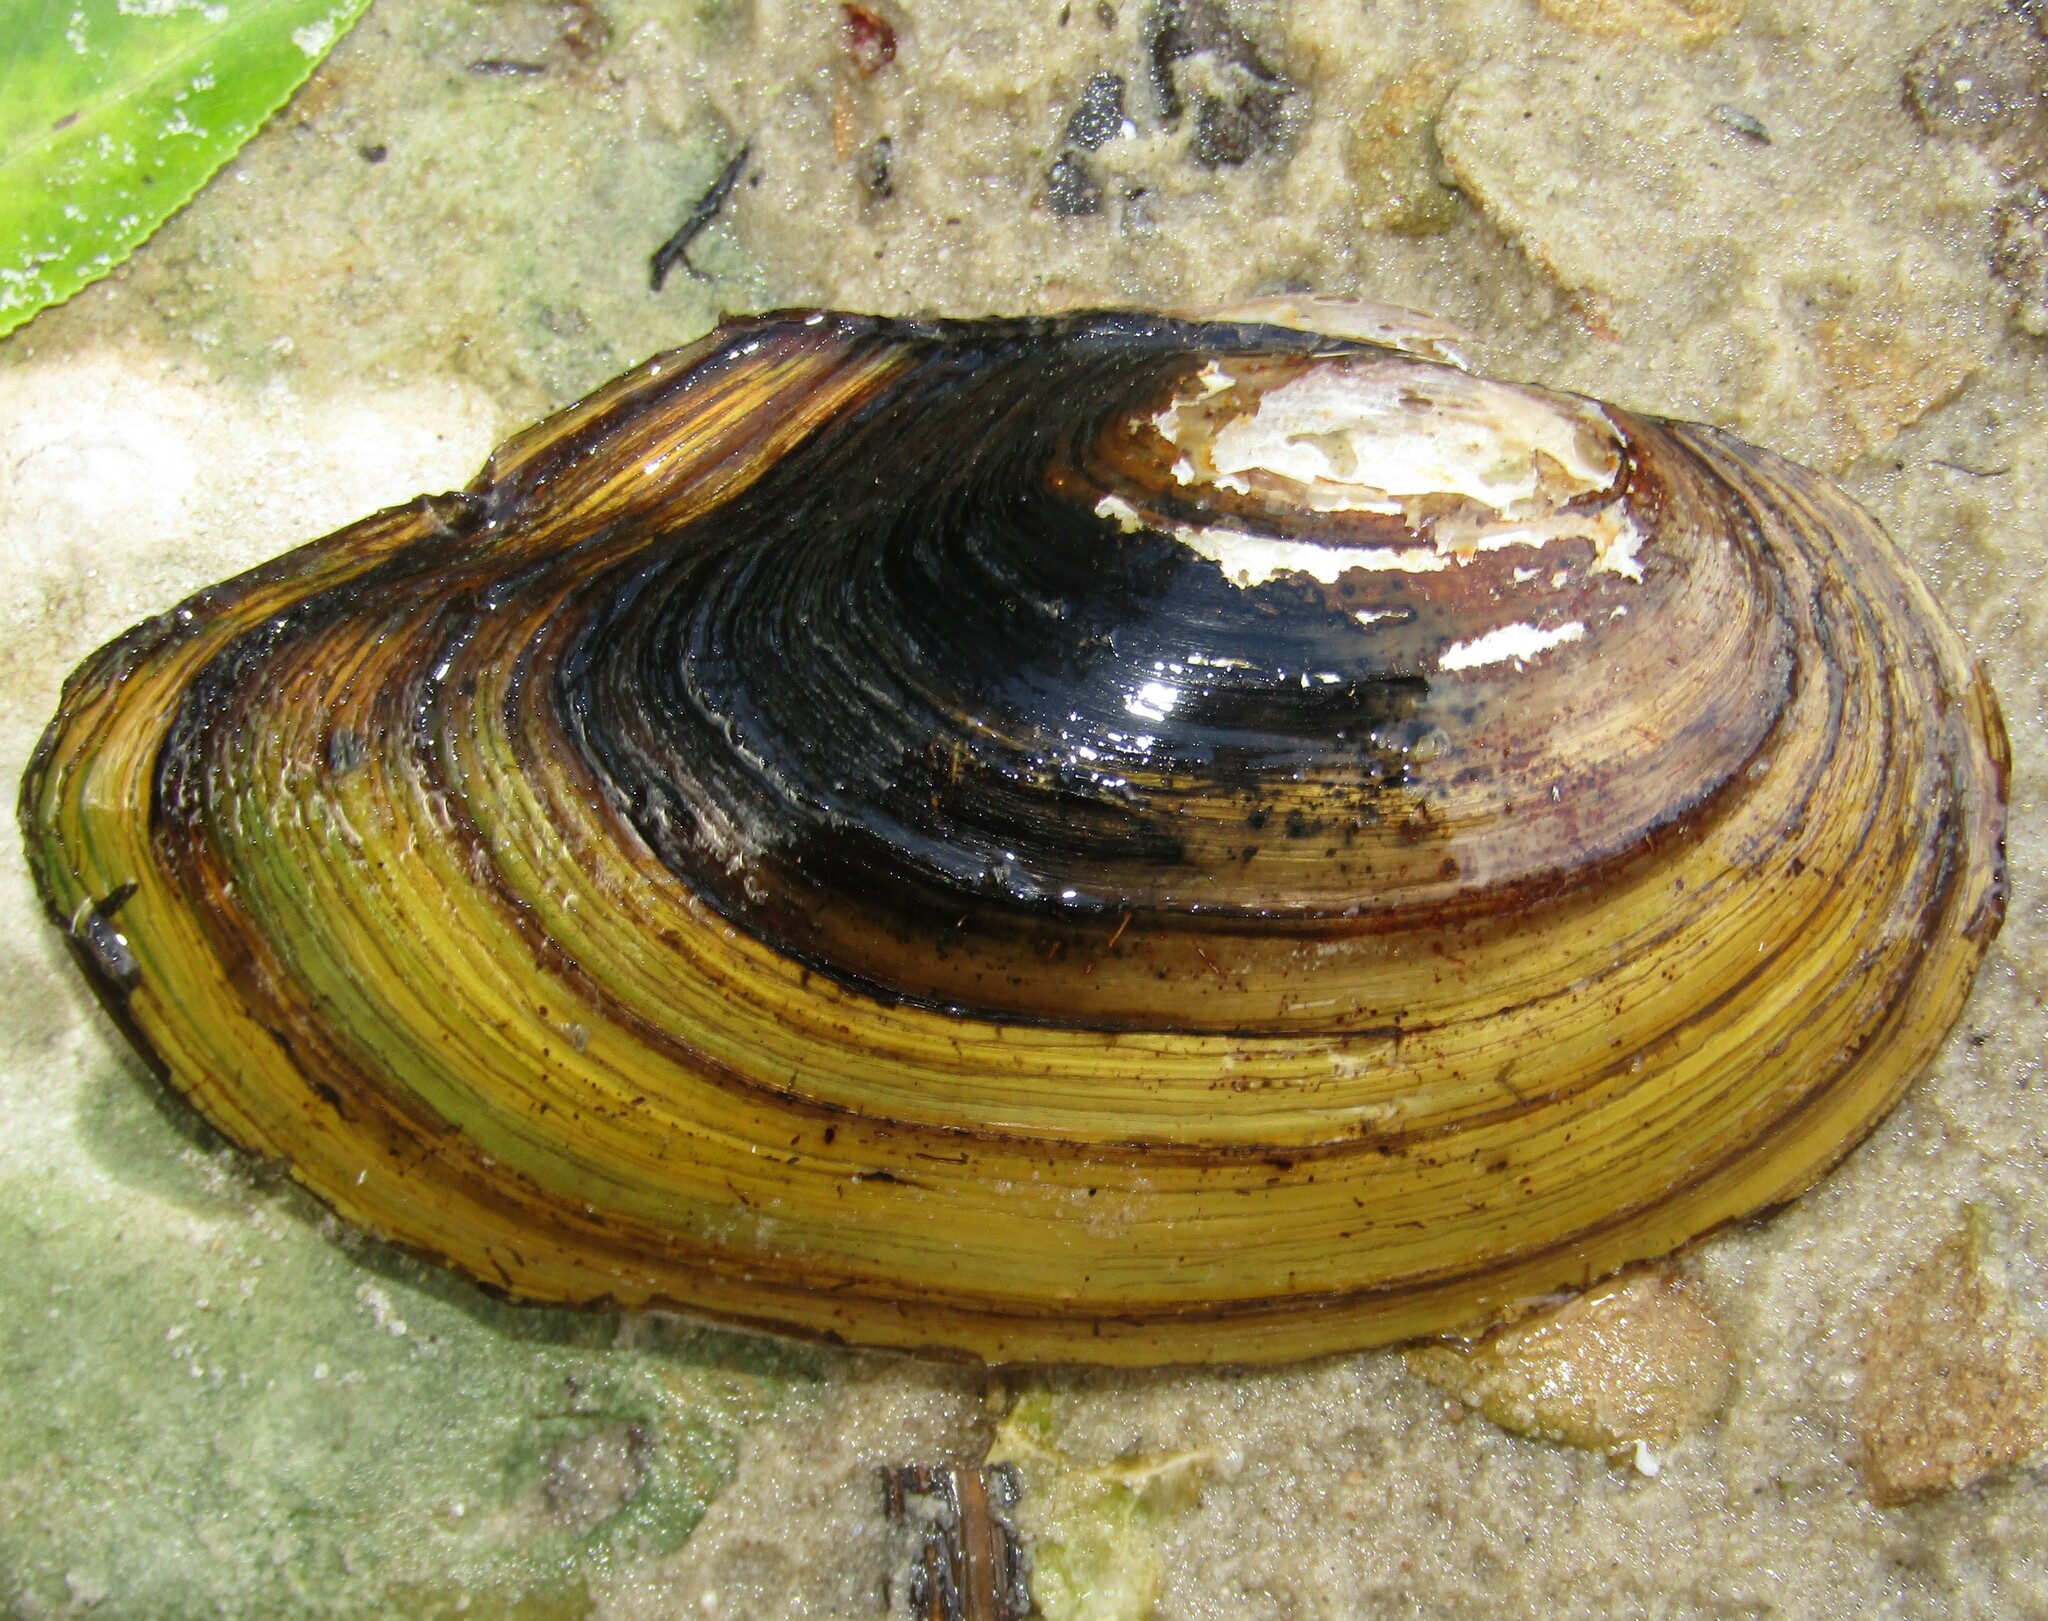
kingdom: Animalia
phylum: Mollusca
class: Bivalvia
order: Unionida
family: Unionidae
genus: Anodonta
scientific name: Anodonta cygnea
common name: Swan mussel
